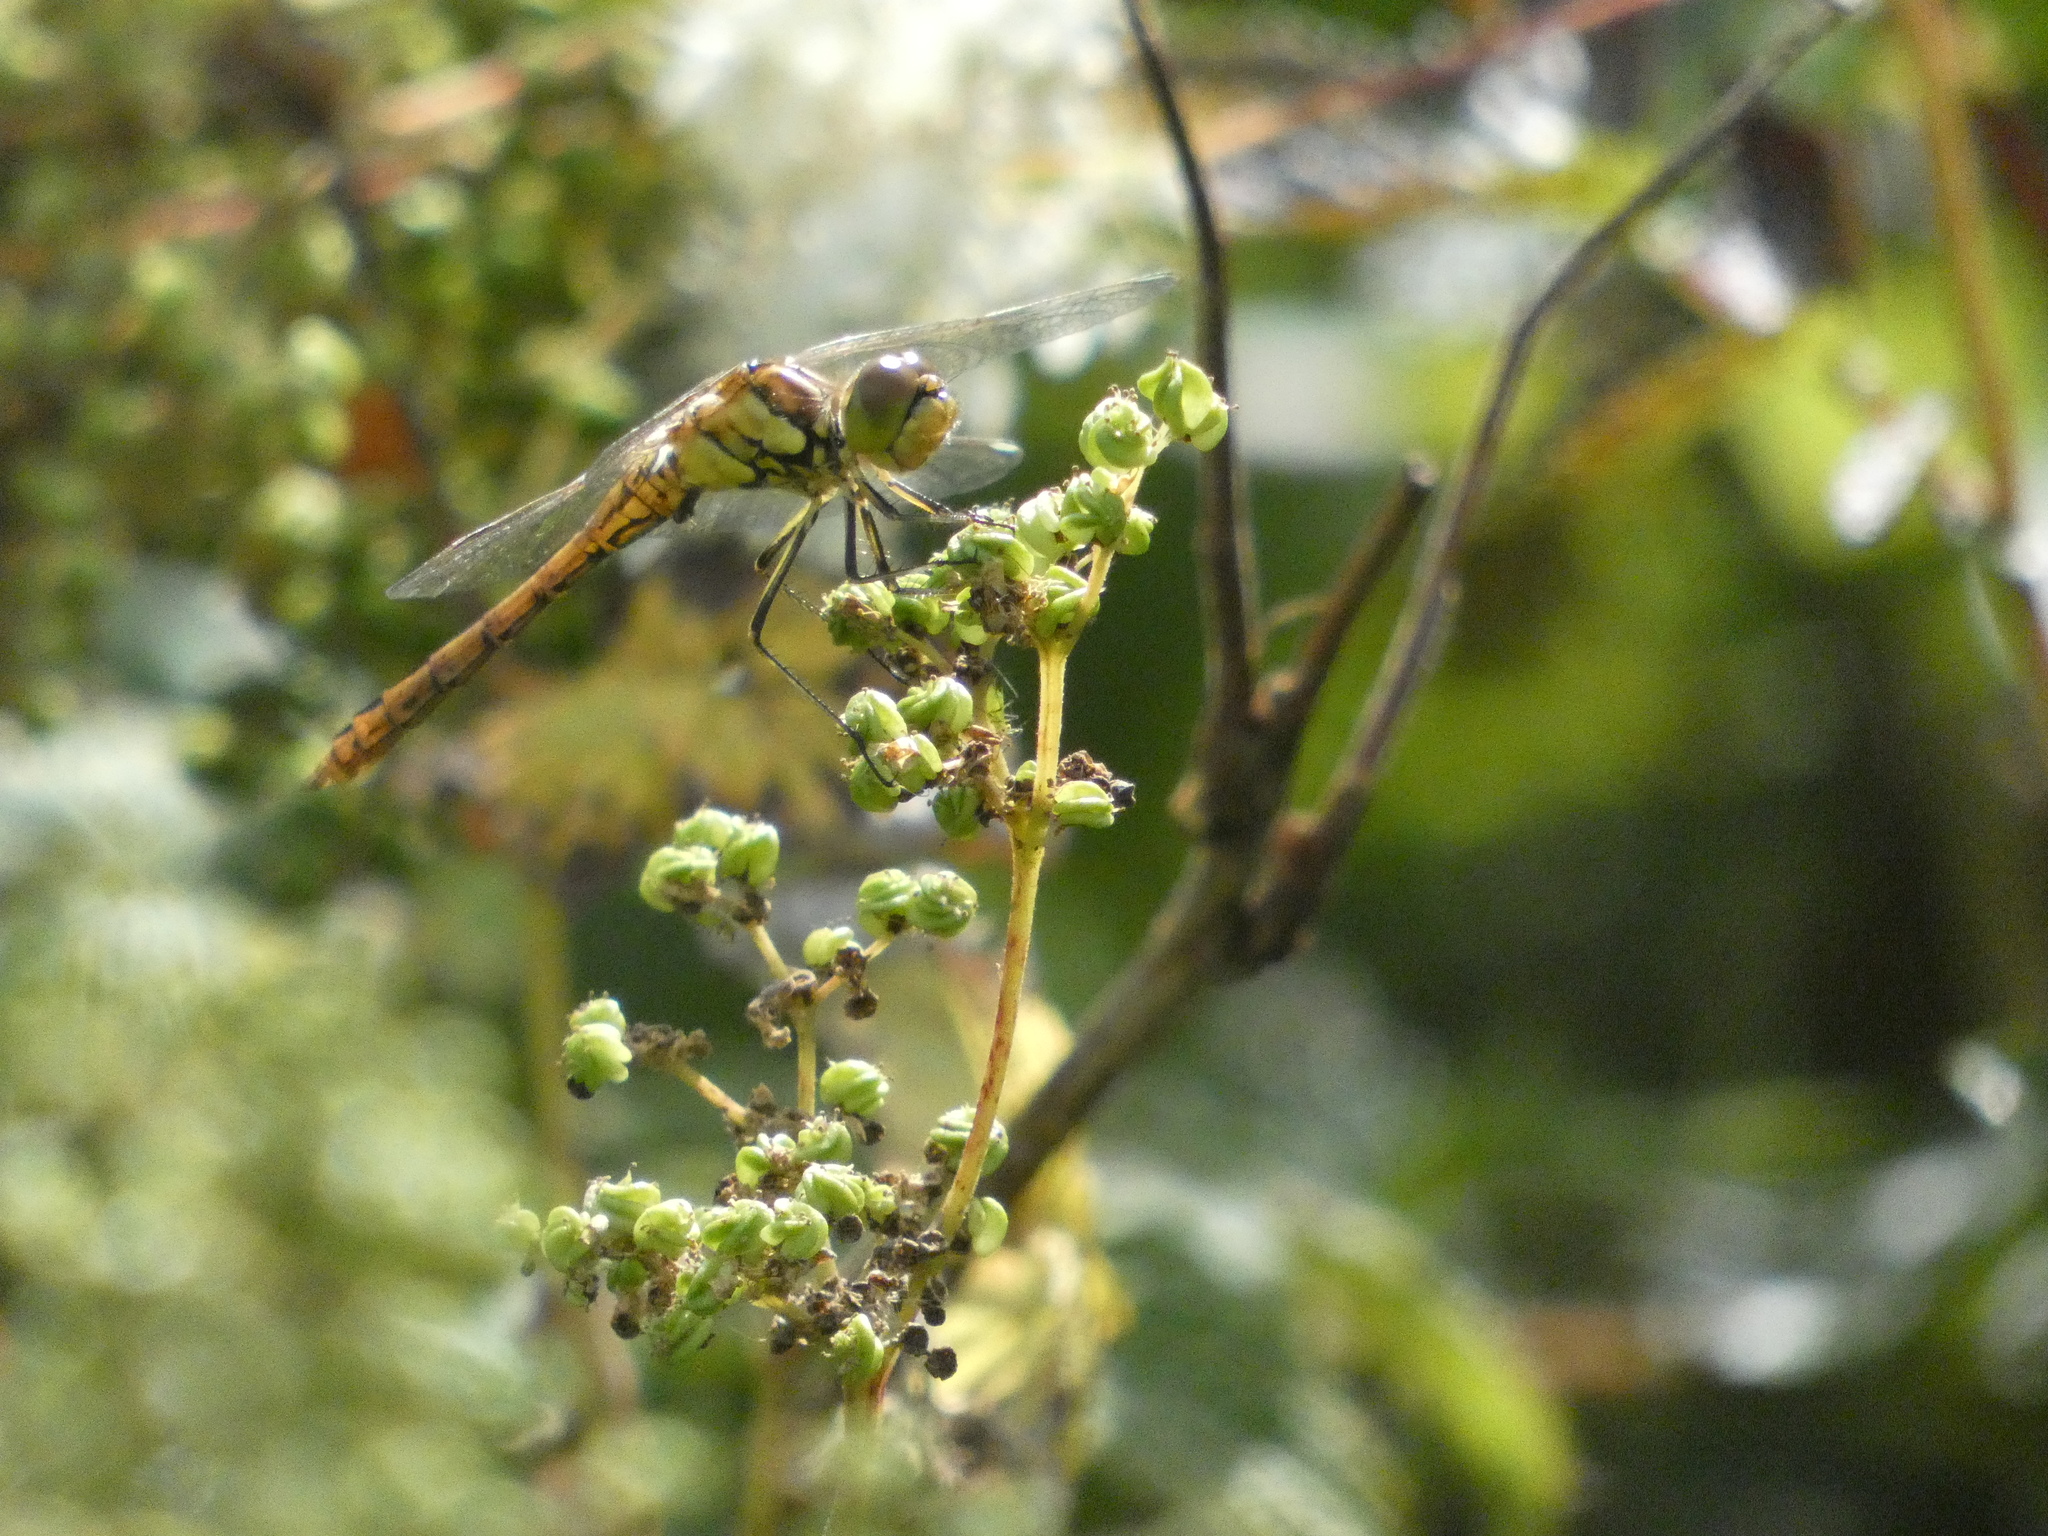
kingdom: Animalia
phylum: Arthropoda
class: Insecta
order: Odonata
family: Libellulidae
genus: Sympetrum
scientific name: Sympetrum vulgatum
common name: Vagrant darter
